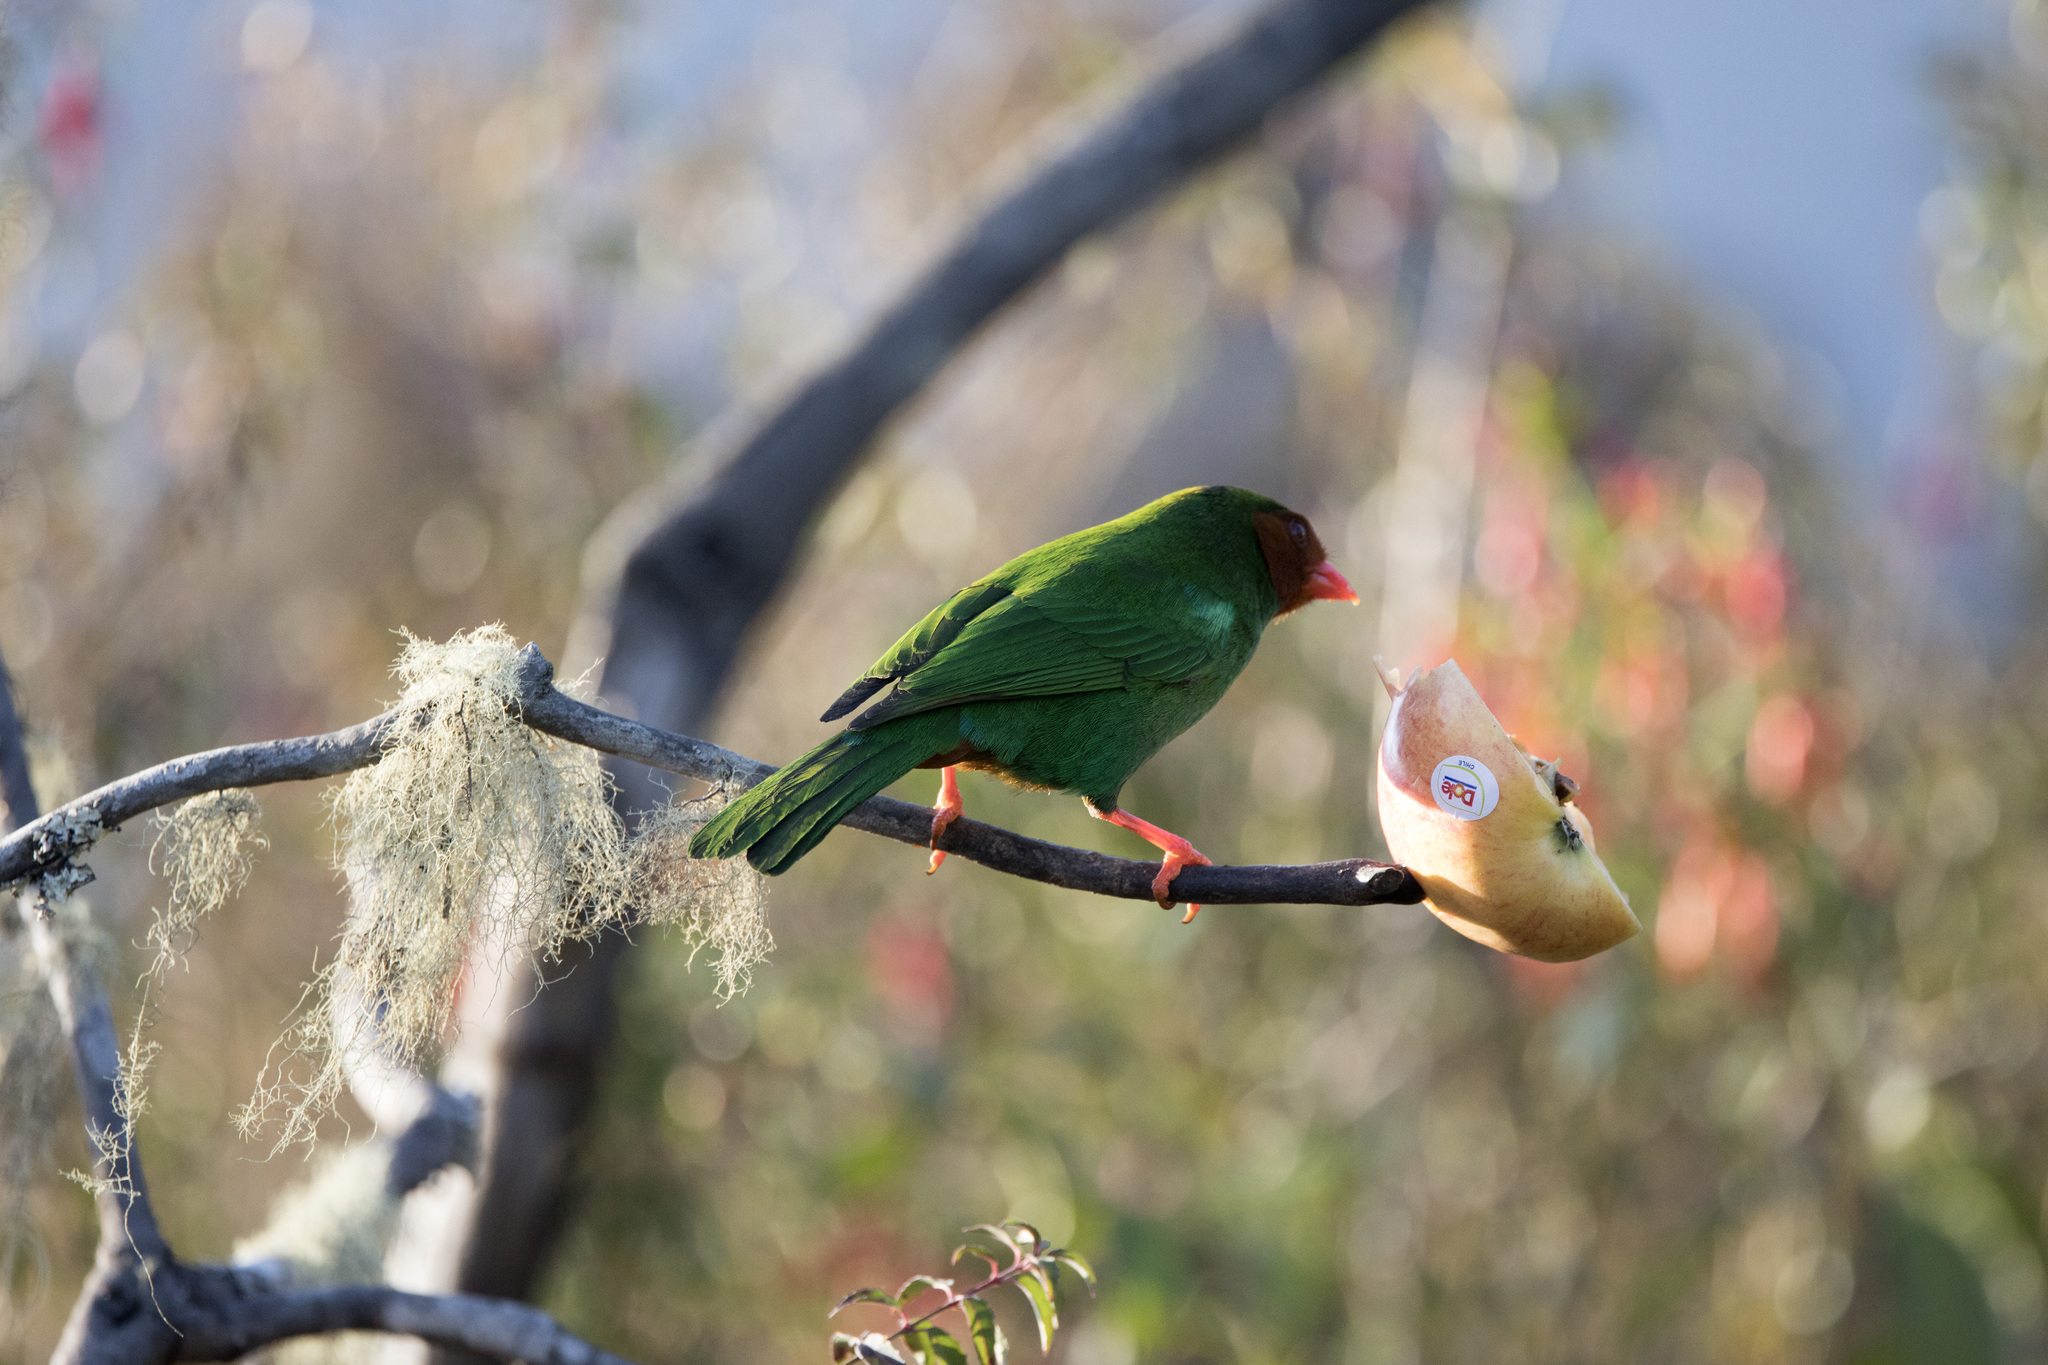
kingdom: Animalia
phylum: Chordata
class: Aves
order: Passeriformes
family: Thraupidae
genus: Chlorornis
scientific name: Chlorornis riefferii
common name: Grass-green tanager
